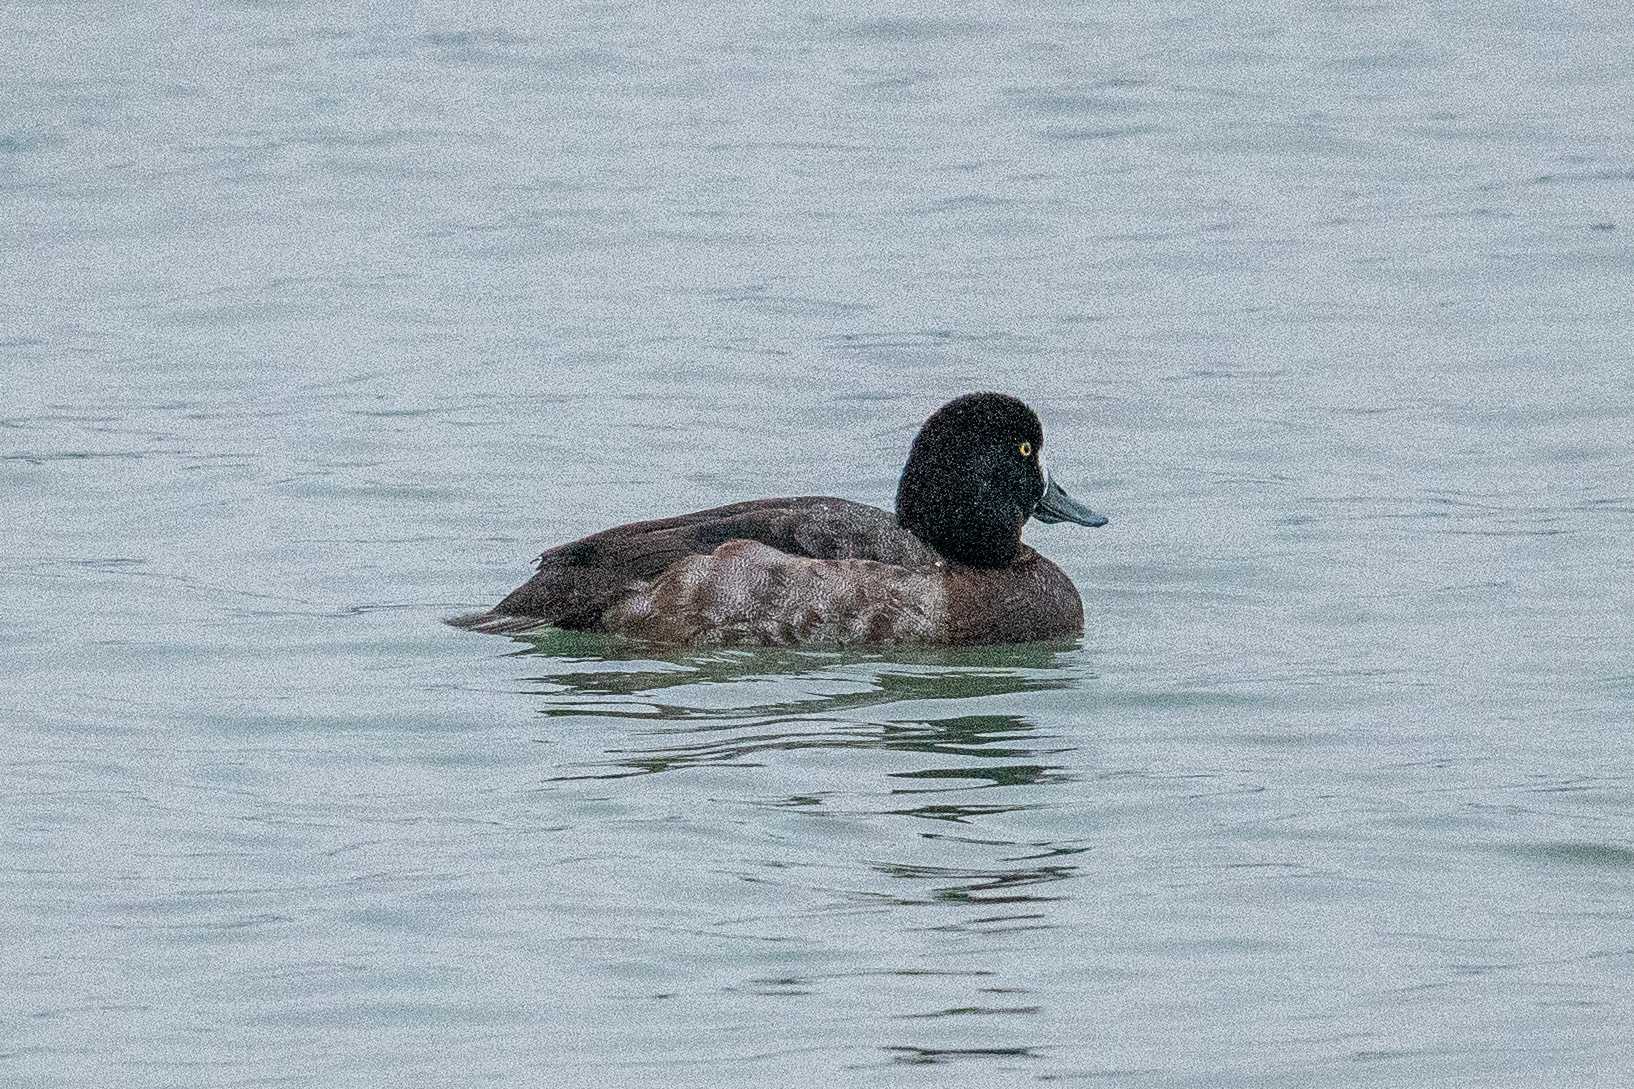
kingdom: Animalia
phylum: Chordata
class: Aves
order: Anseriformes
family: Anatidae
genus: Aythya
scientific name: Aythya marila
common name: Greater scaup
